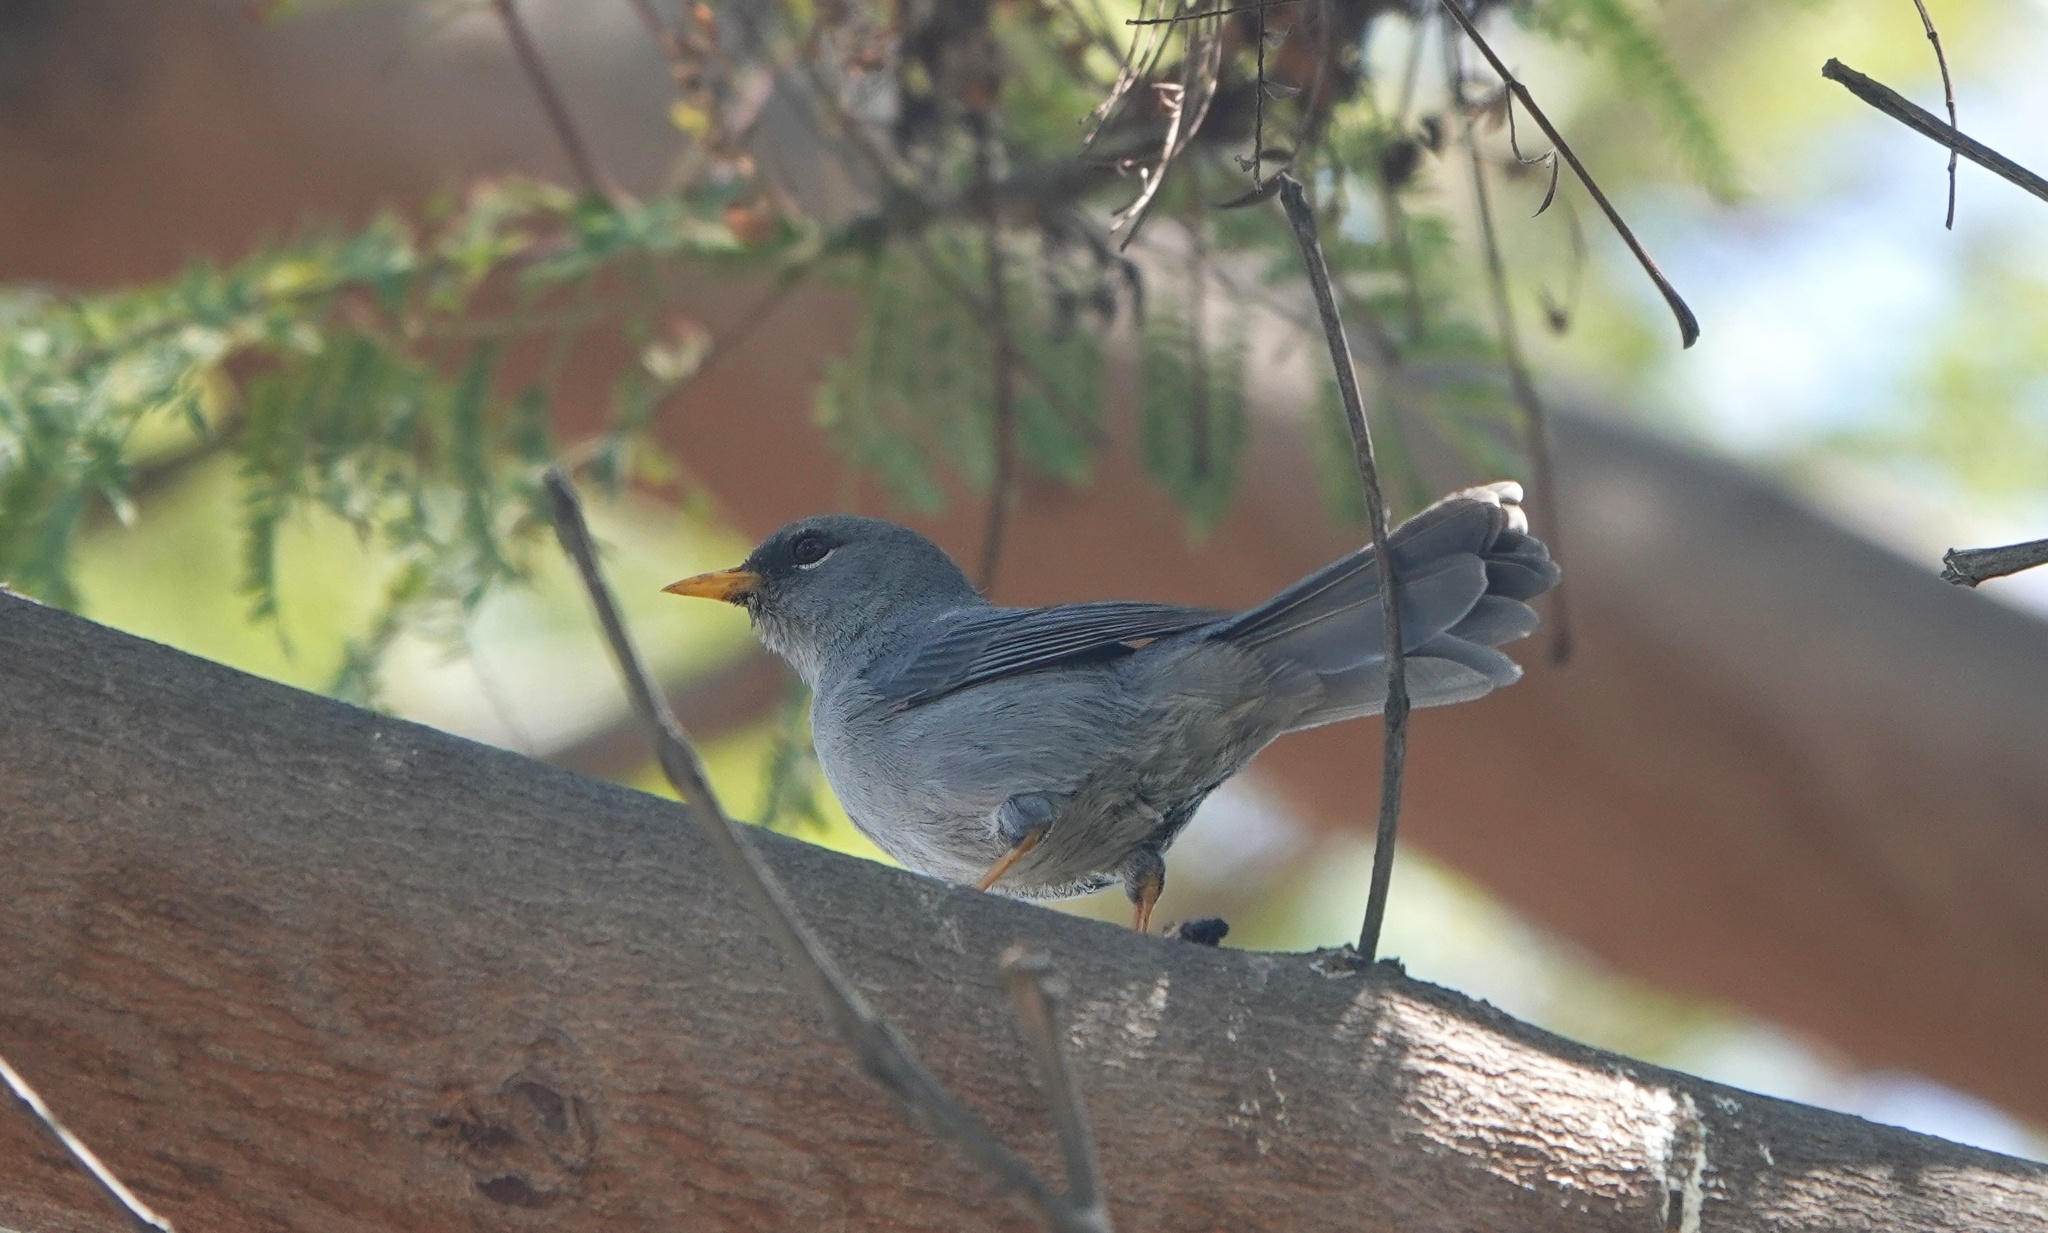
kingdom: Animalia
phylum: Chordata
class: Aves
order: Passeriformes
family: Thraupidae
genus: Xenospingus
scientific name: Xenospingus concolor
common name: Slender-billed finch
